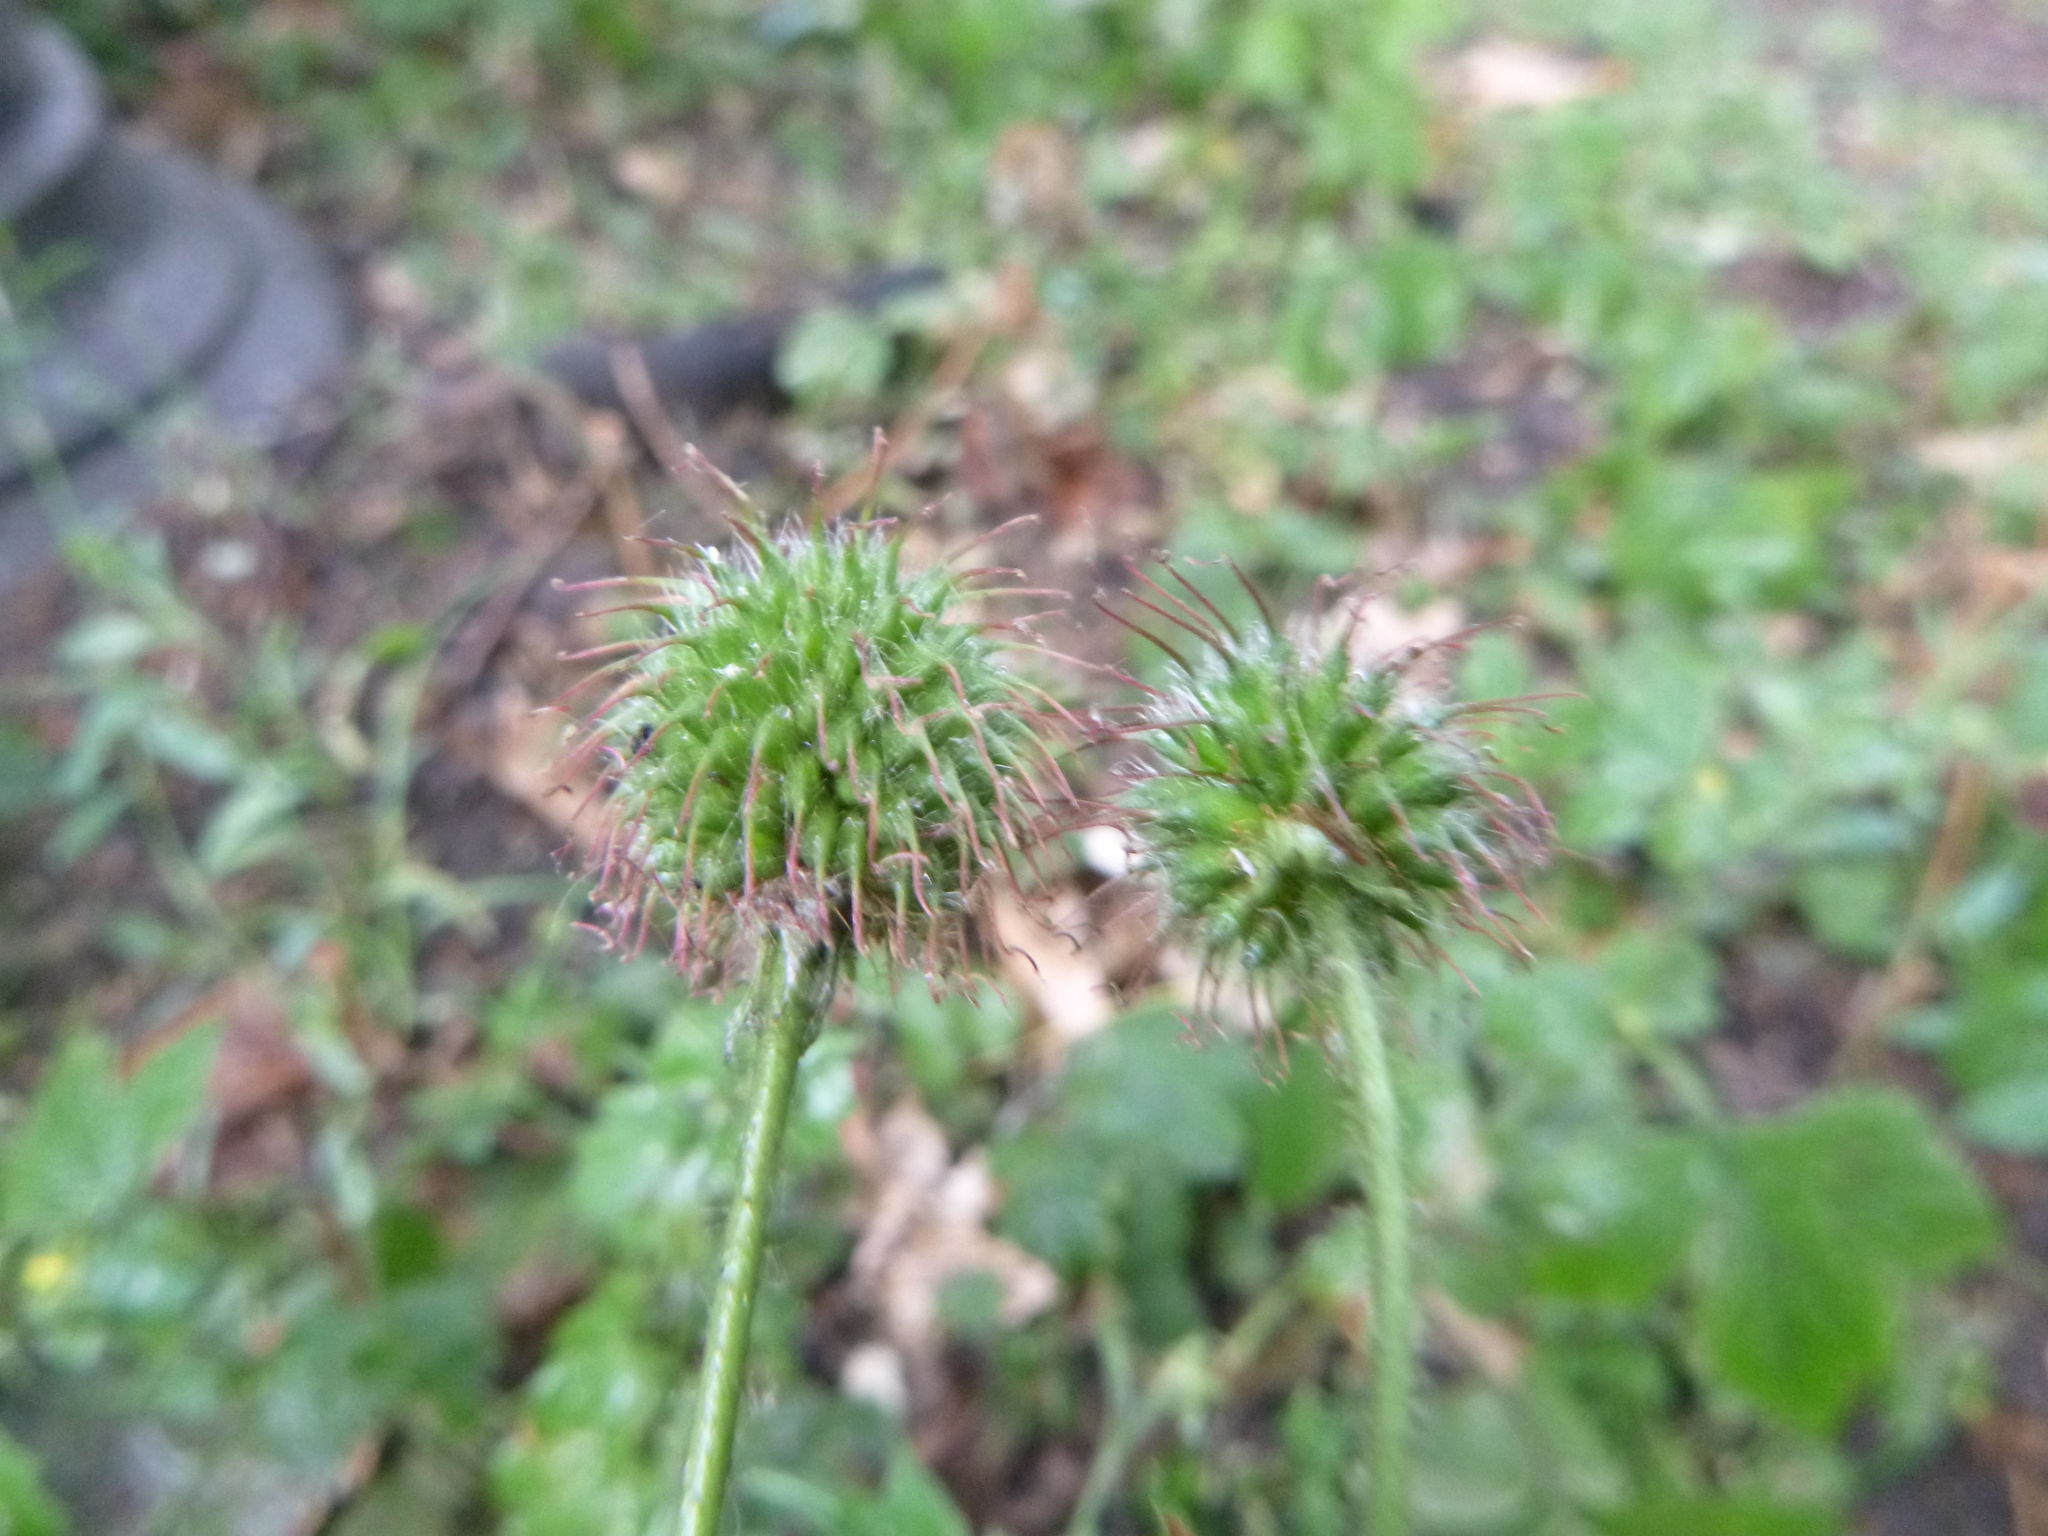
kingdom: Plantae
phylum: Tracheophyta
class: Magnoliopsida
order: Rosales
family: Rosaceae
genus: Geum
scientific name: Geum urbanum
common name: Wood avens
